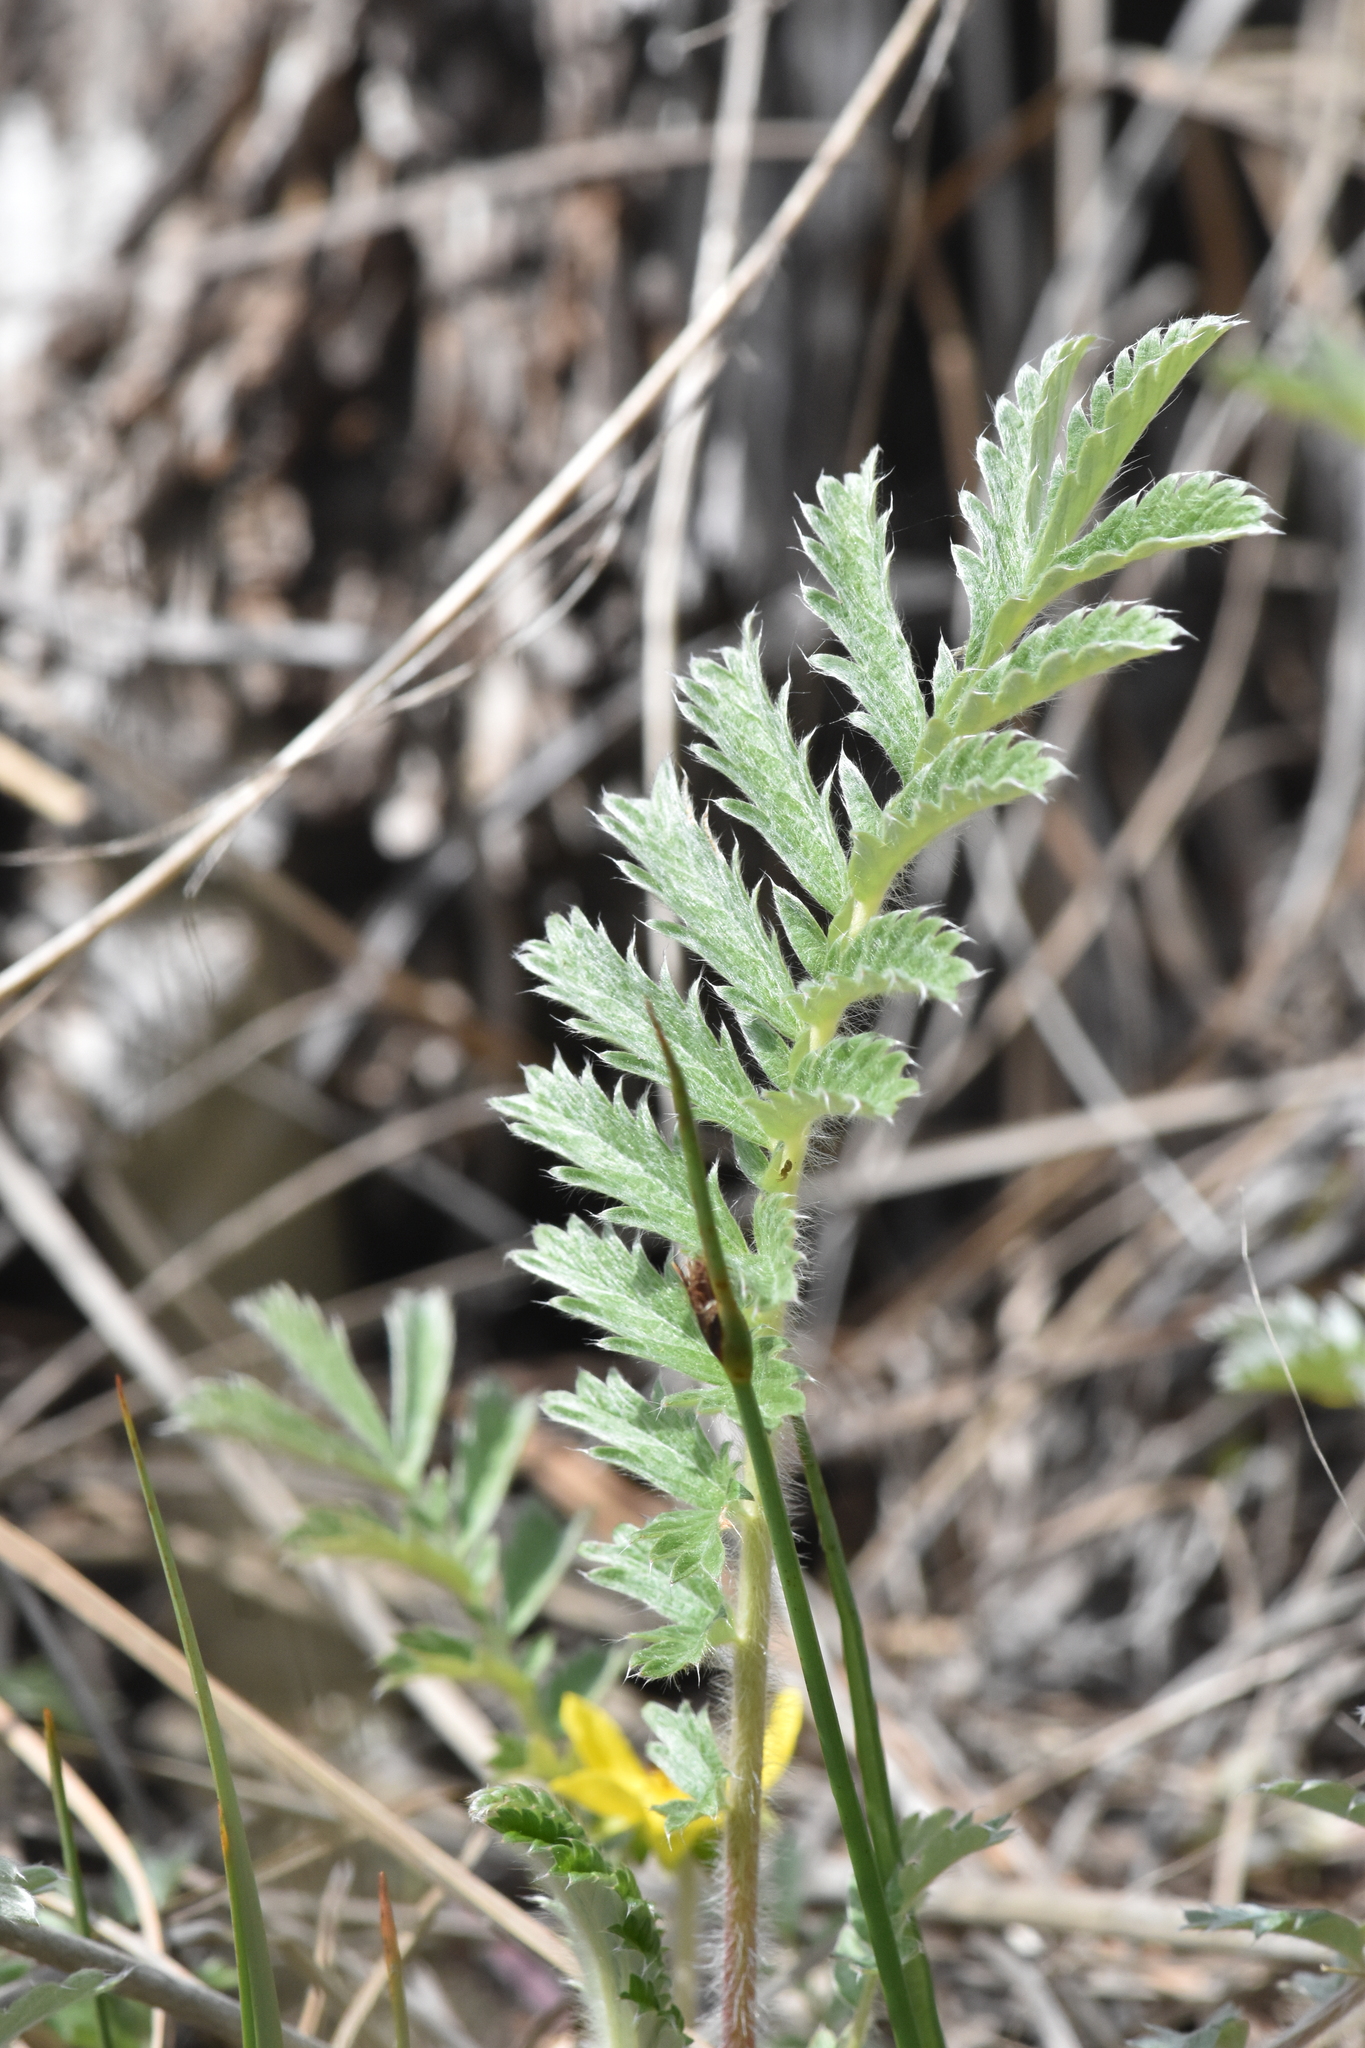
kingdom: Plantae
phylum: Tracheophyta
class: Magnoliopsida
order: Rosales
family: Rosaceae
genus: Argentina
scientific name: Argentina anserina
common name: Common silverweed
